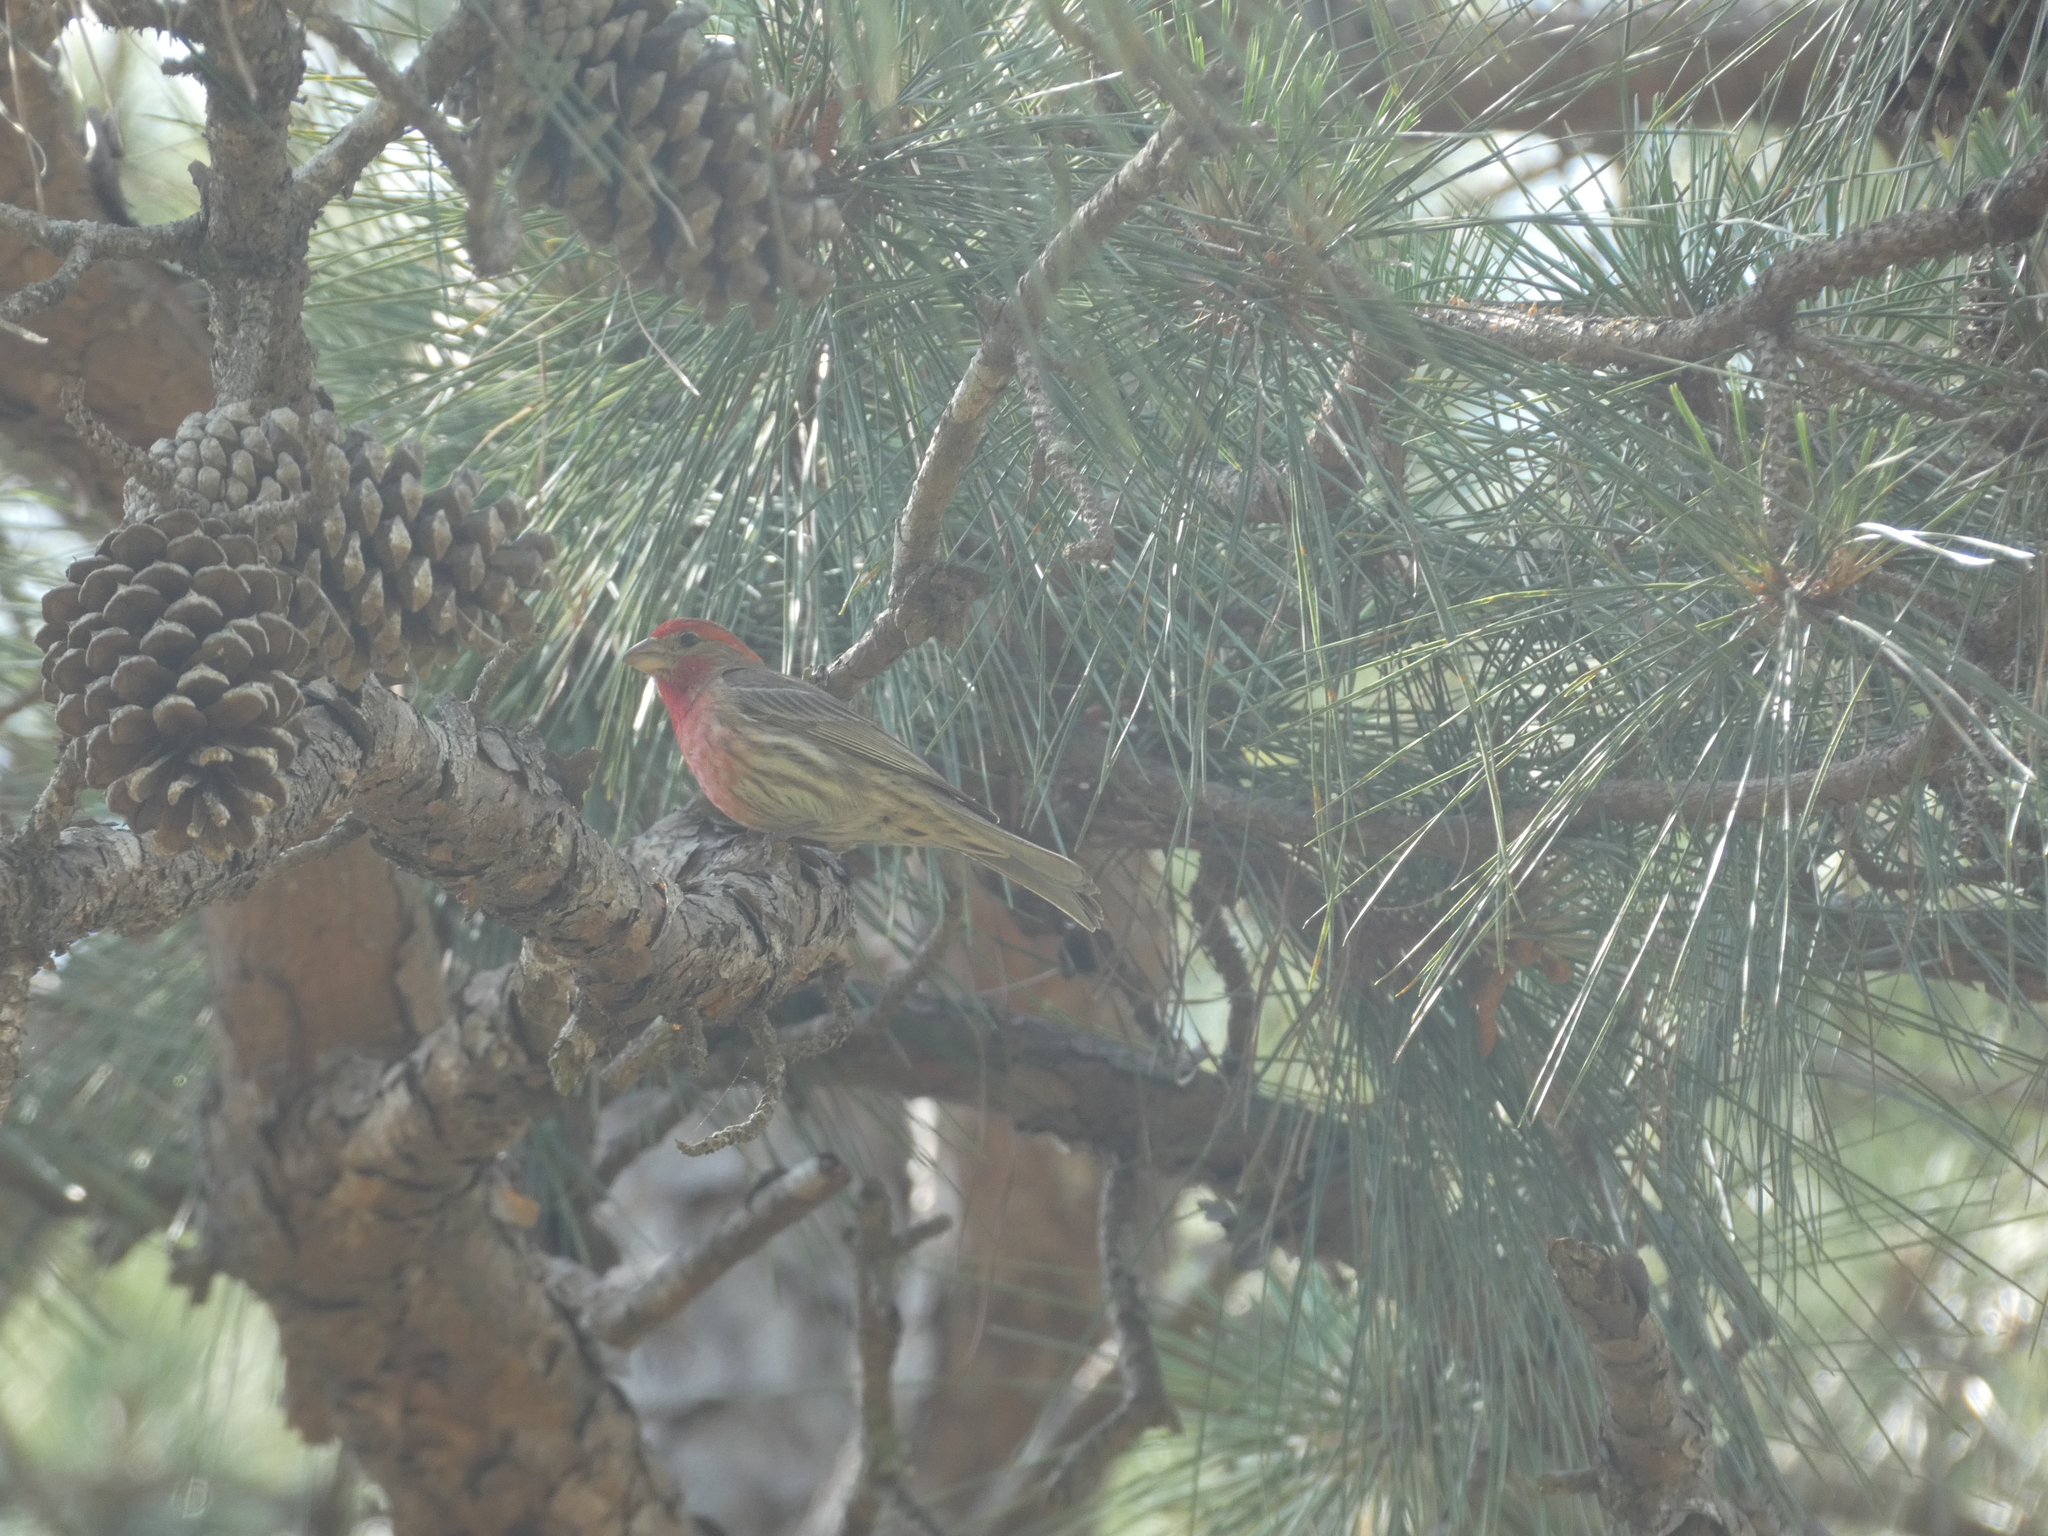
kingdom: Animalia
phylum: Chordata
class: Aves
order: Passeriformes
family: Fringillidae
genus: Haemorhous
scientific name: Haemorhous mexicanus
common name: House finch
